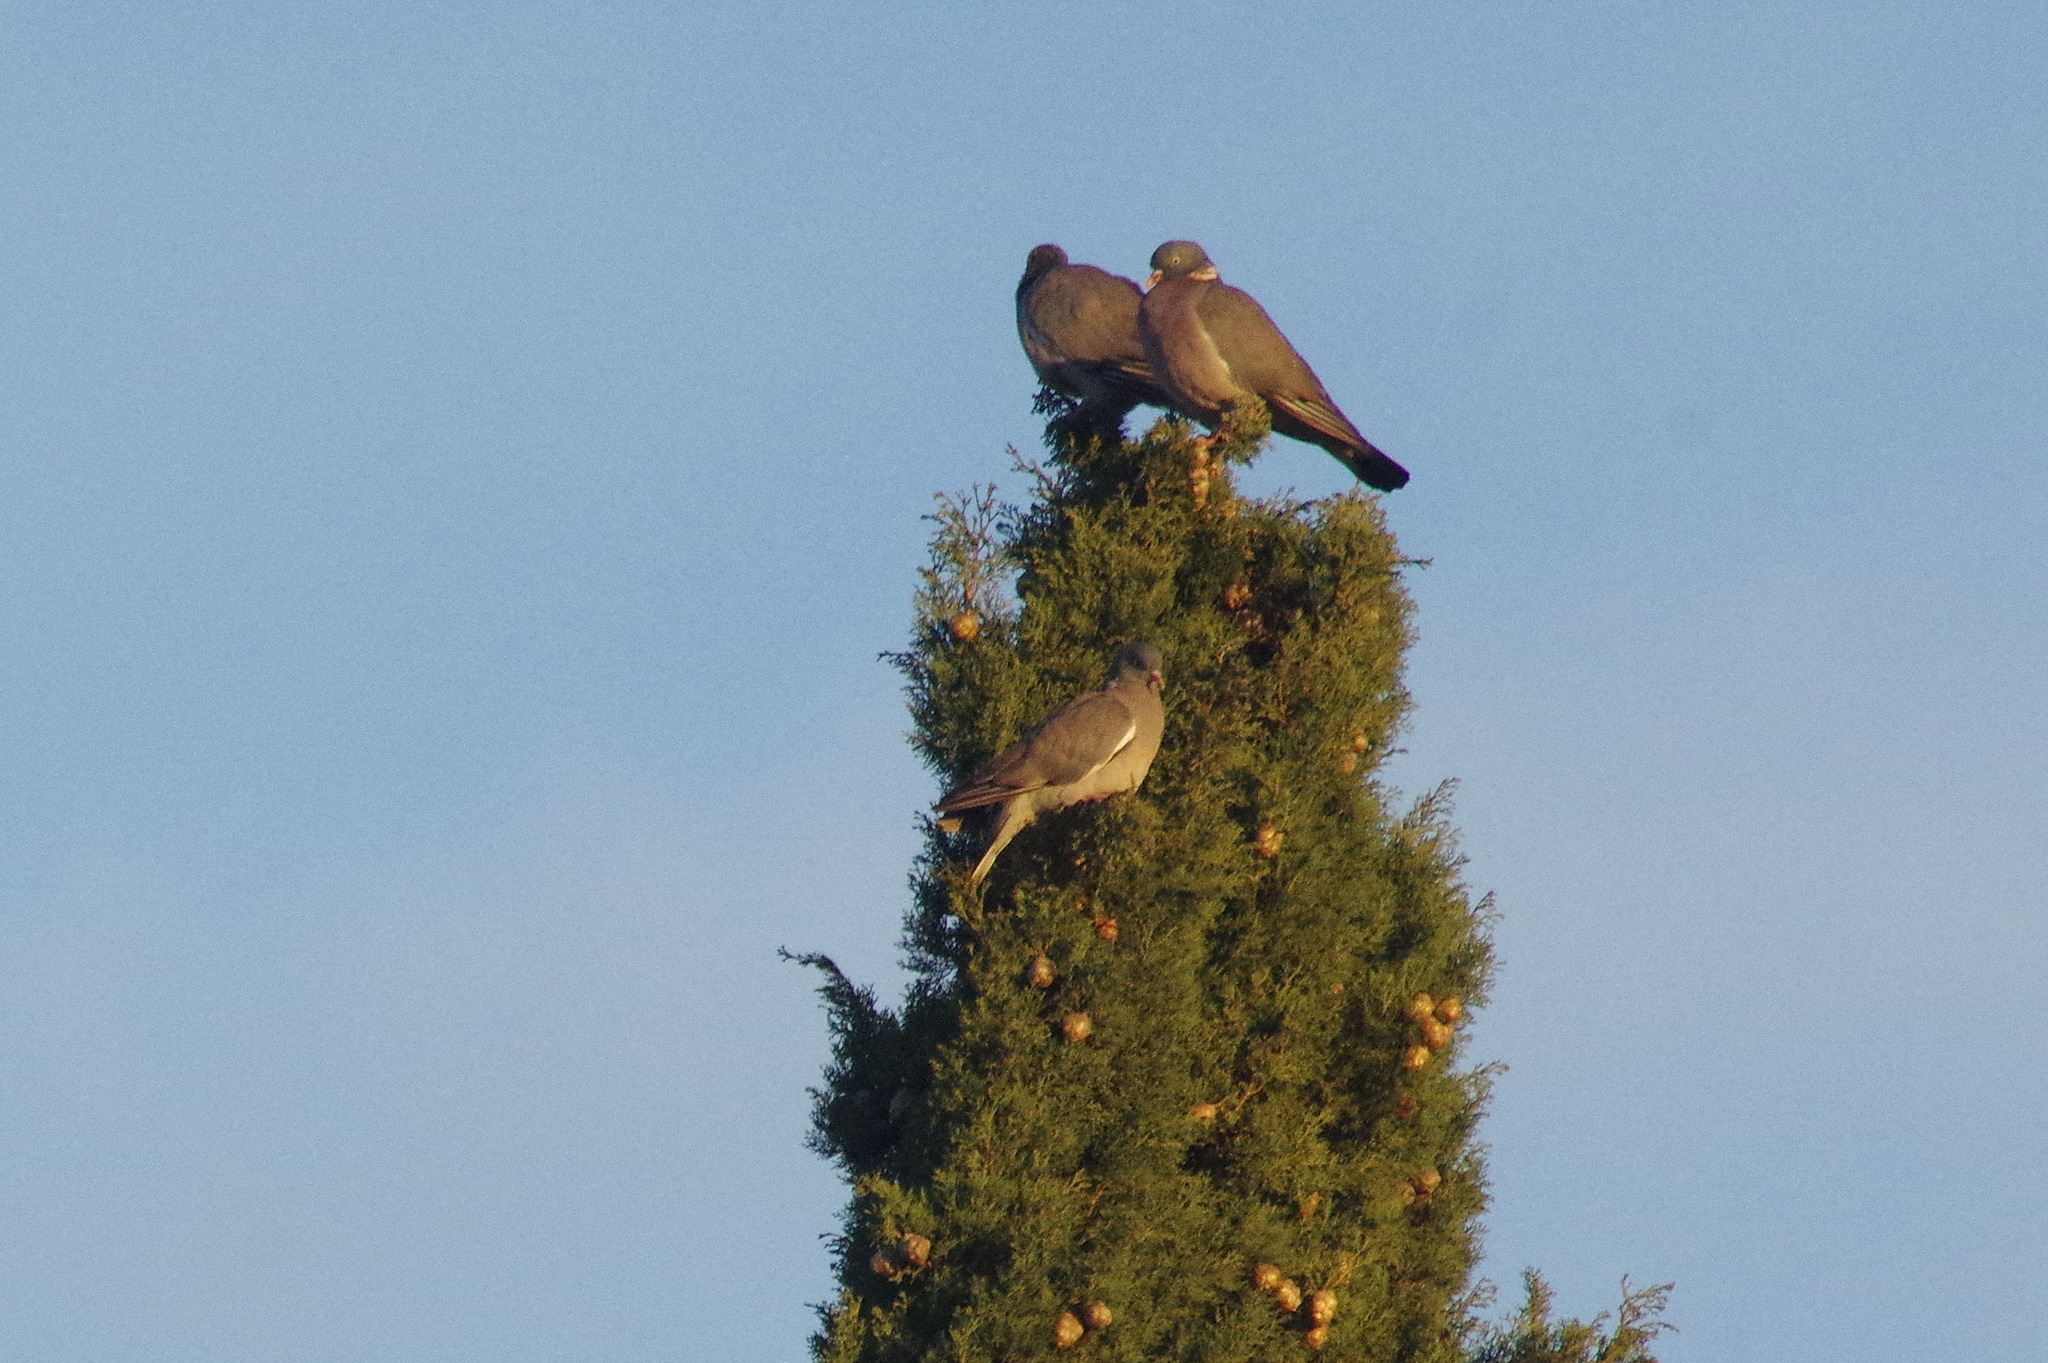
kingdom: Animalia
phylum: Chordata
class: Aves
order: Columbiformes
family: Columbidae
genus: Columba
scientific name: Columba palumbus
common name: Common wood pigeon
